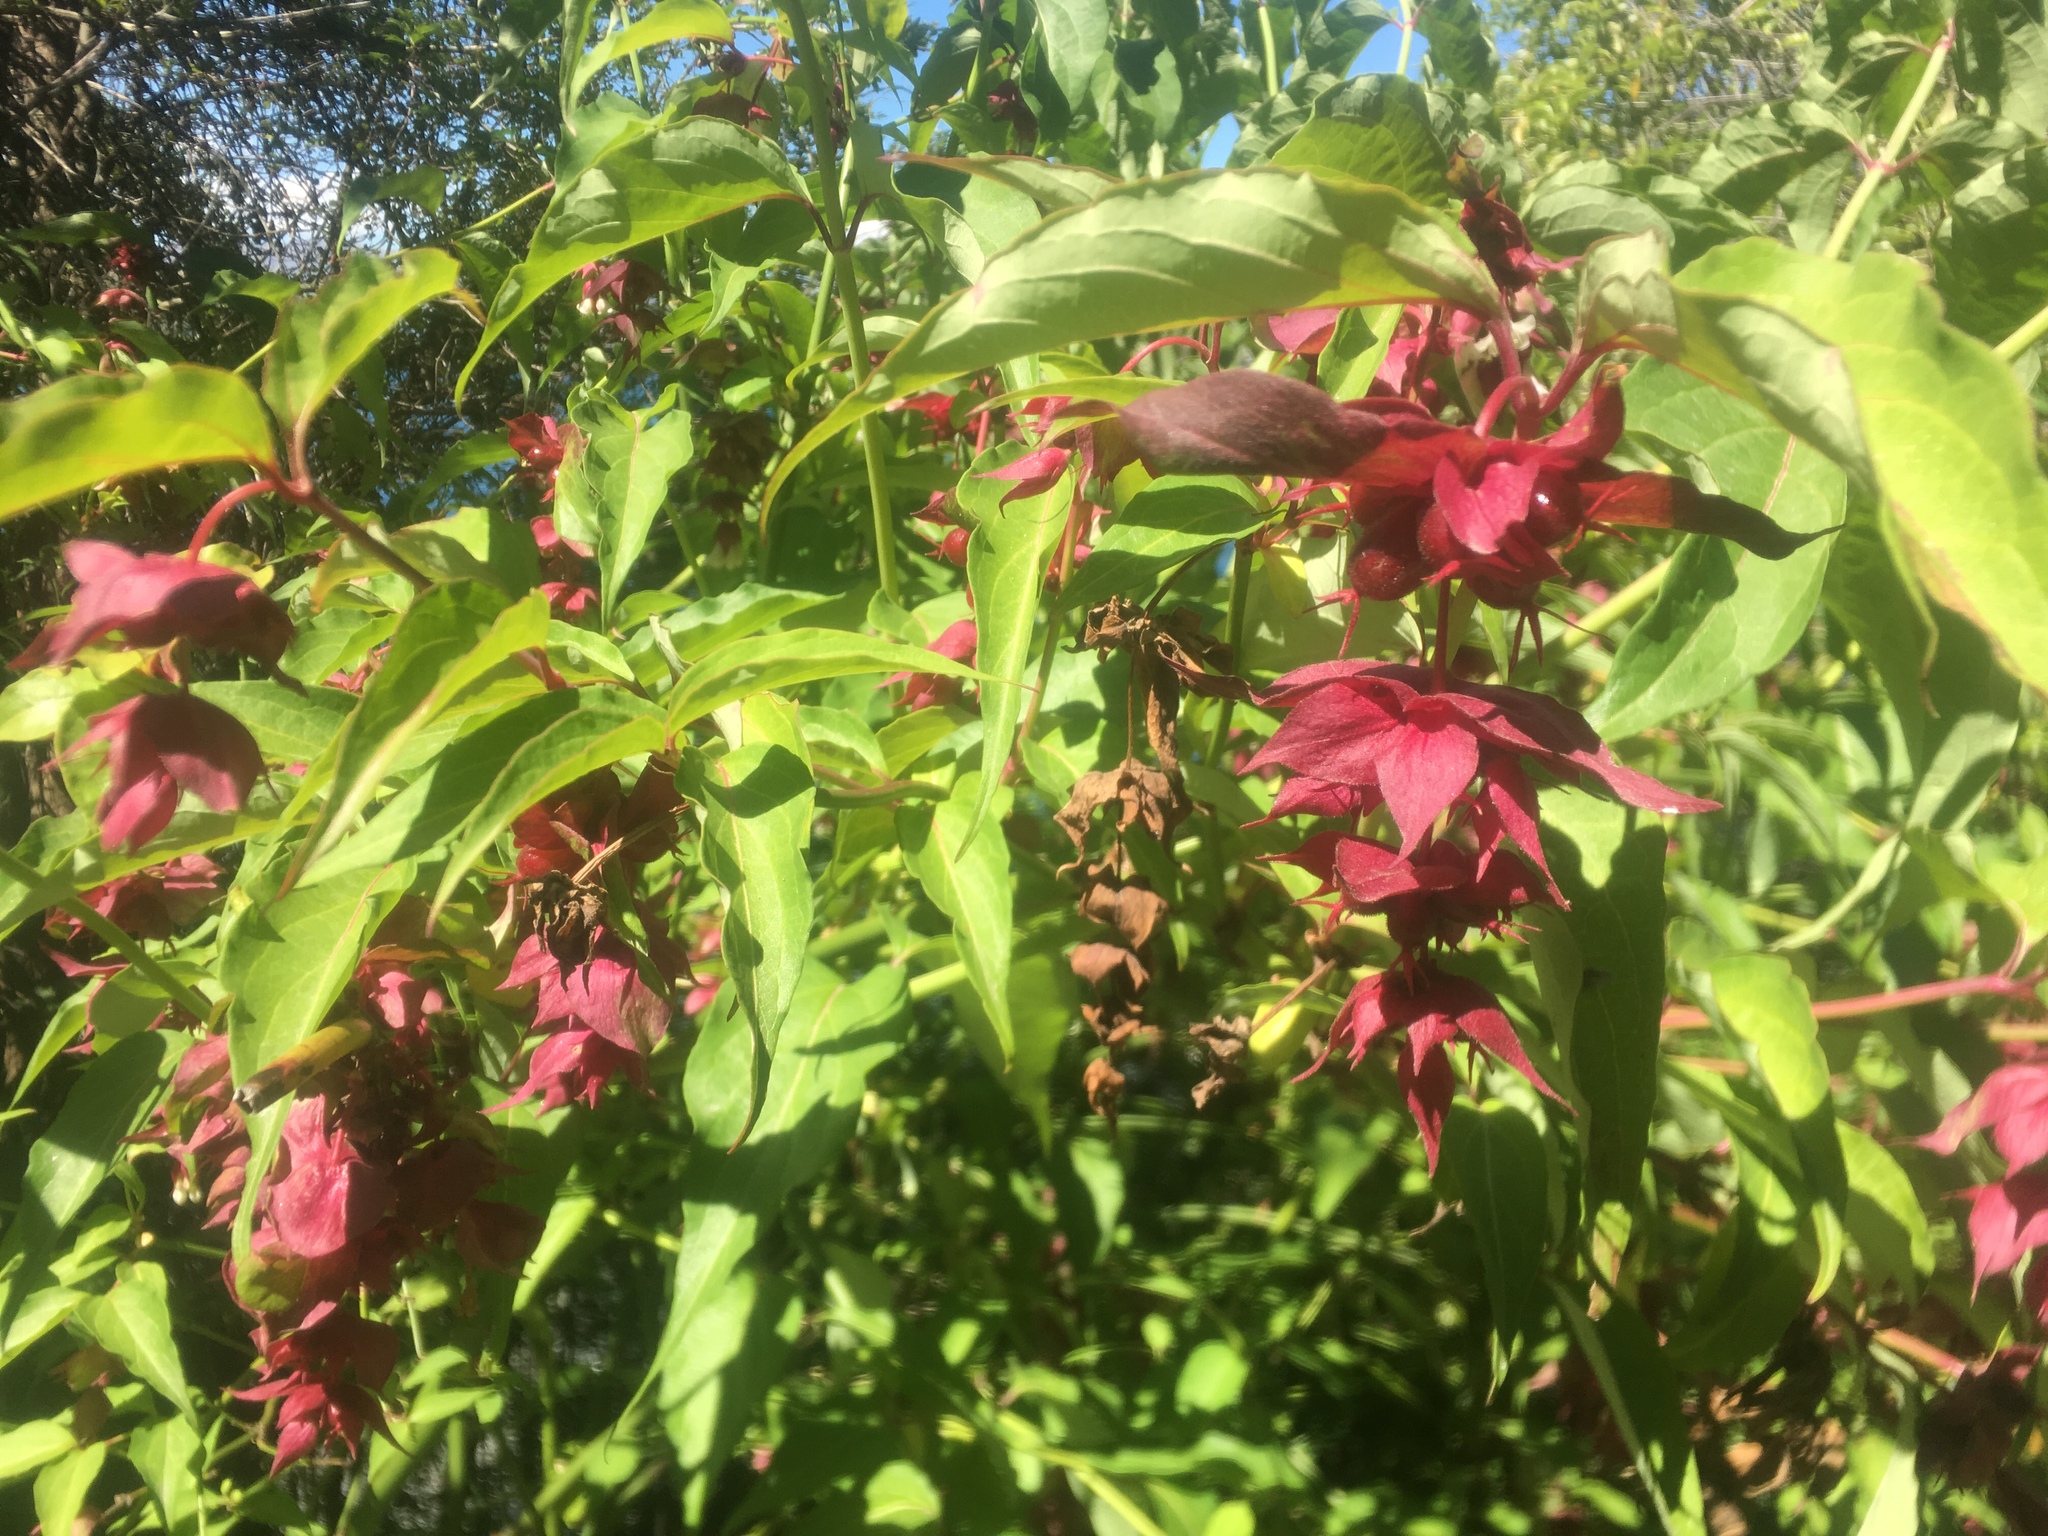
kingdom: Plantae
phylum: Tracheophyta
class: Magnoliopsida
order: Dipsacales
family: Caprifoliaceae
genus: Leycesteria
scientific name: Leycesteria formosa
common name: Himalayan honeysuckle
